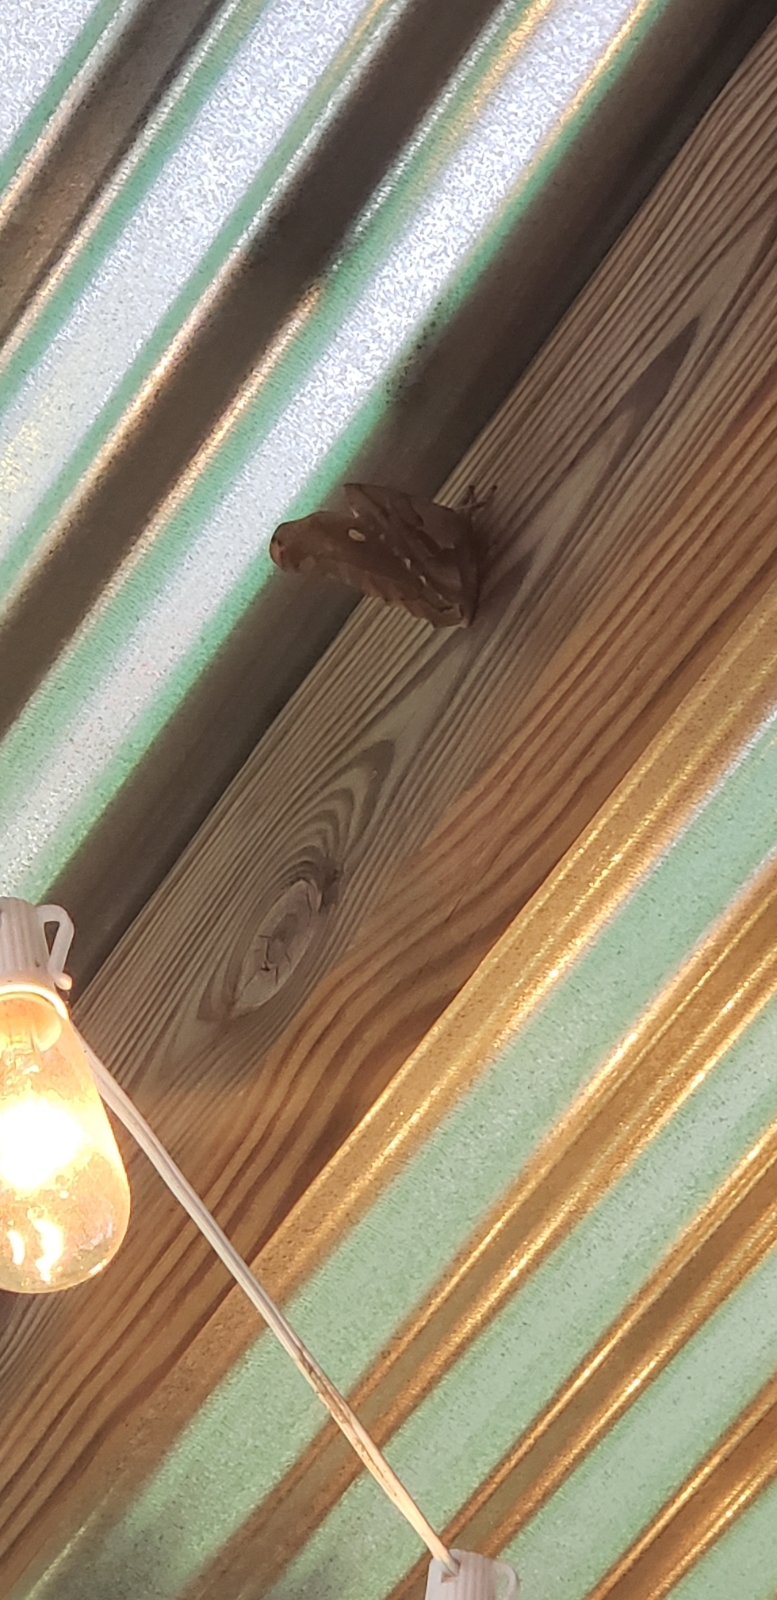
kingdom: Animalia
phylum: Arthropoda
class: Insecta
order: Lepidoptera
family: Saturniidae
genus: Antheraea
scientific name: Antheraea polyphemus
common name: Polyphemus moth
